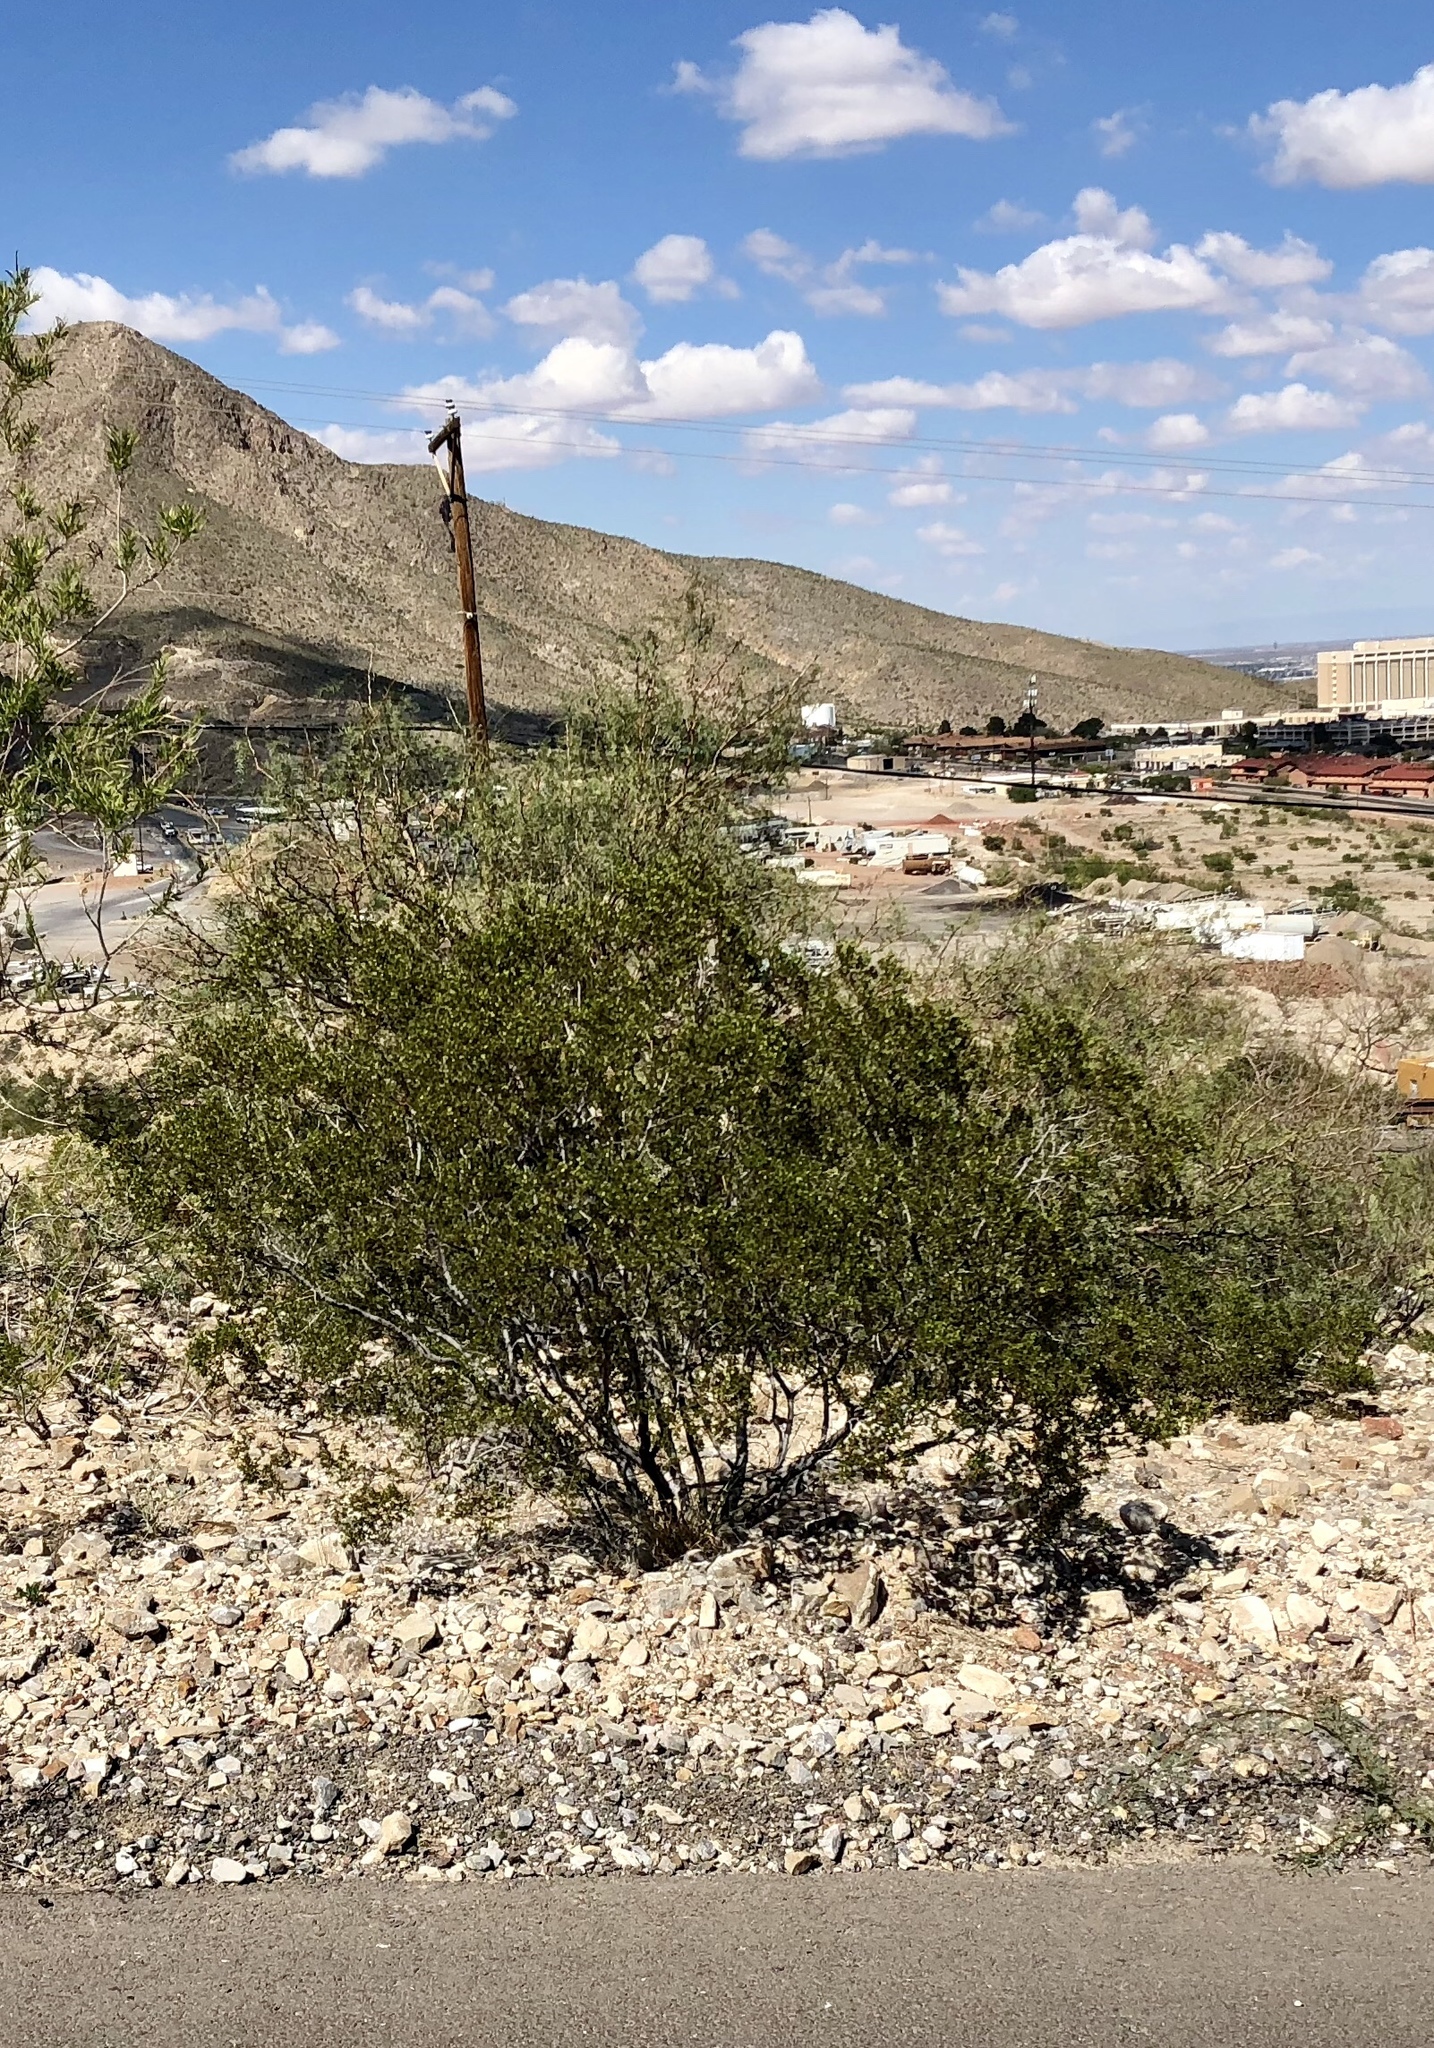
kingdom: Plantae
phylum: Tracheophyta
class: Magnoliopsida
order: Zygophyllales
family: Zygophyllaceae
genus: Larrea
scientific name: Larrea tridentata
